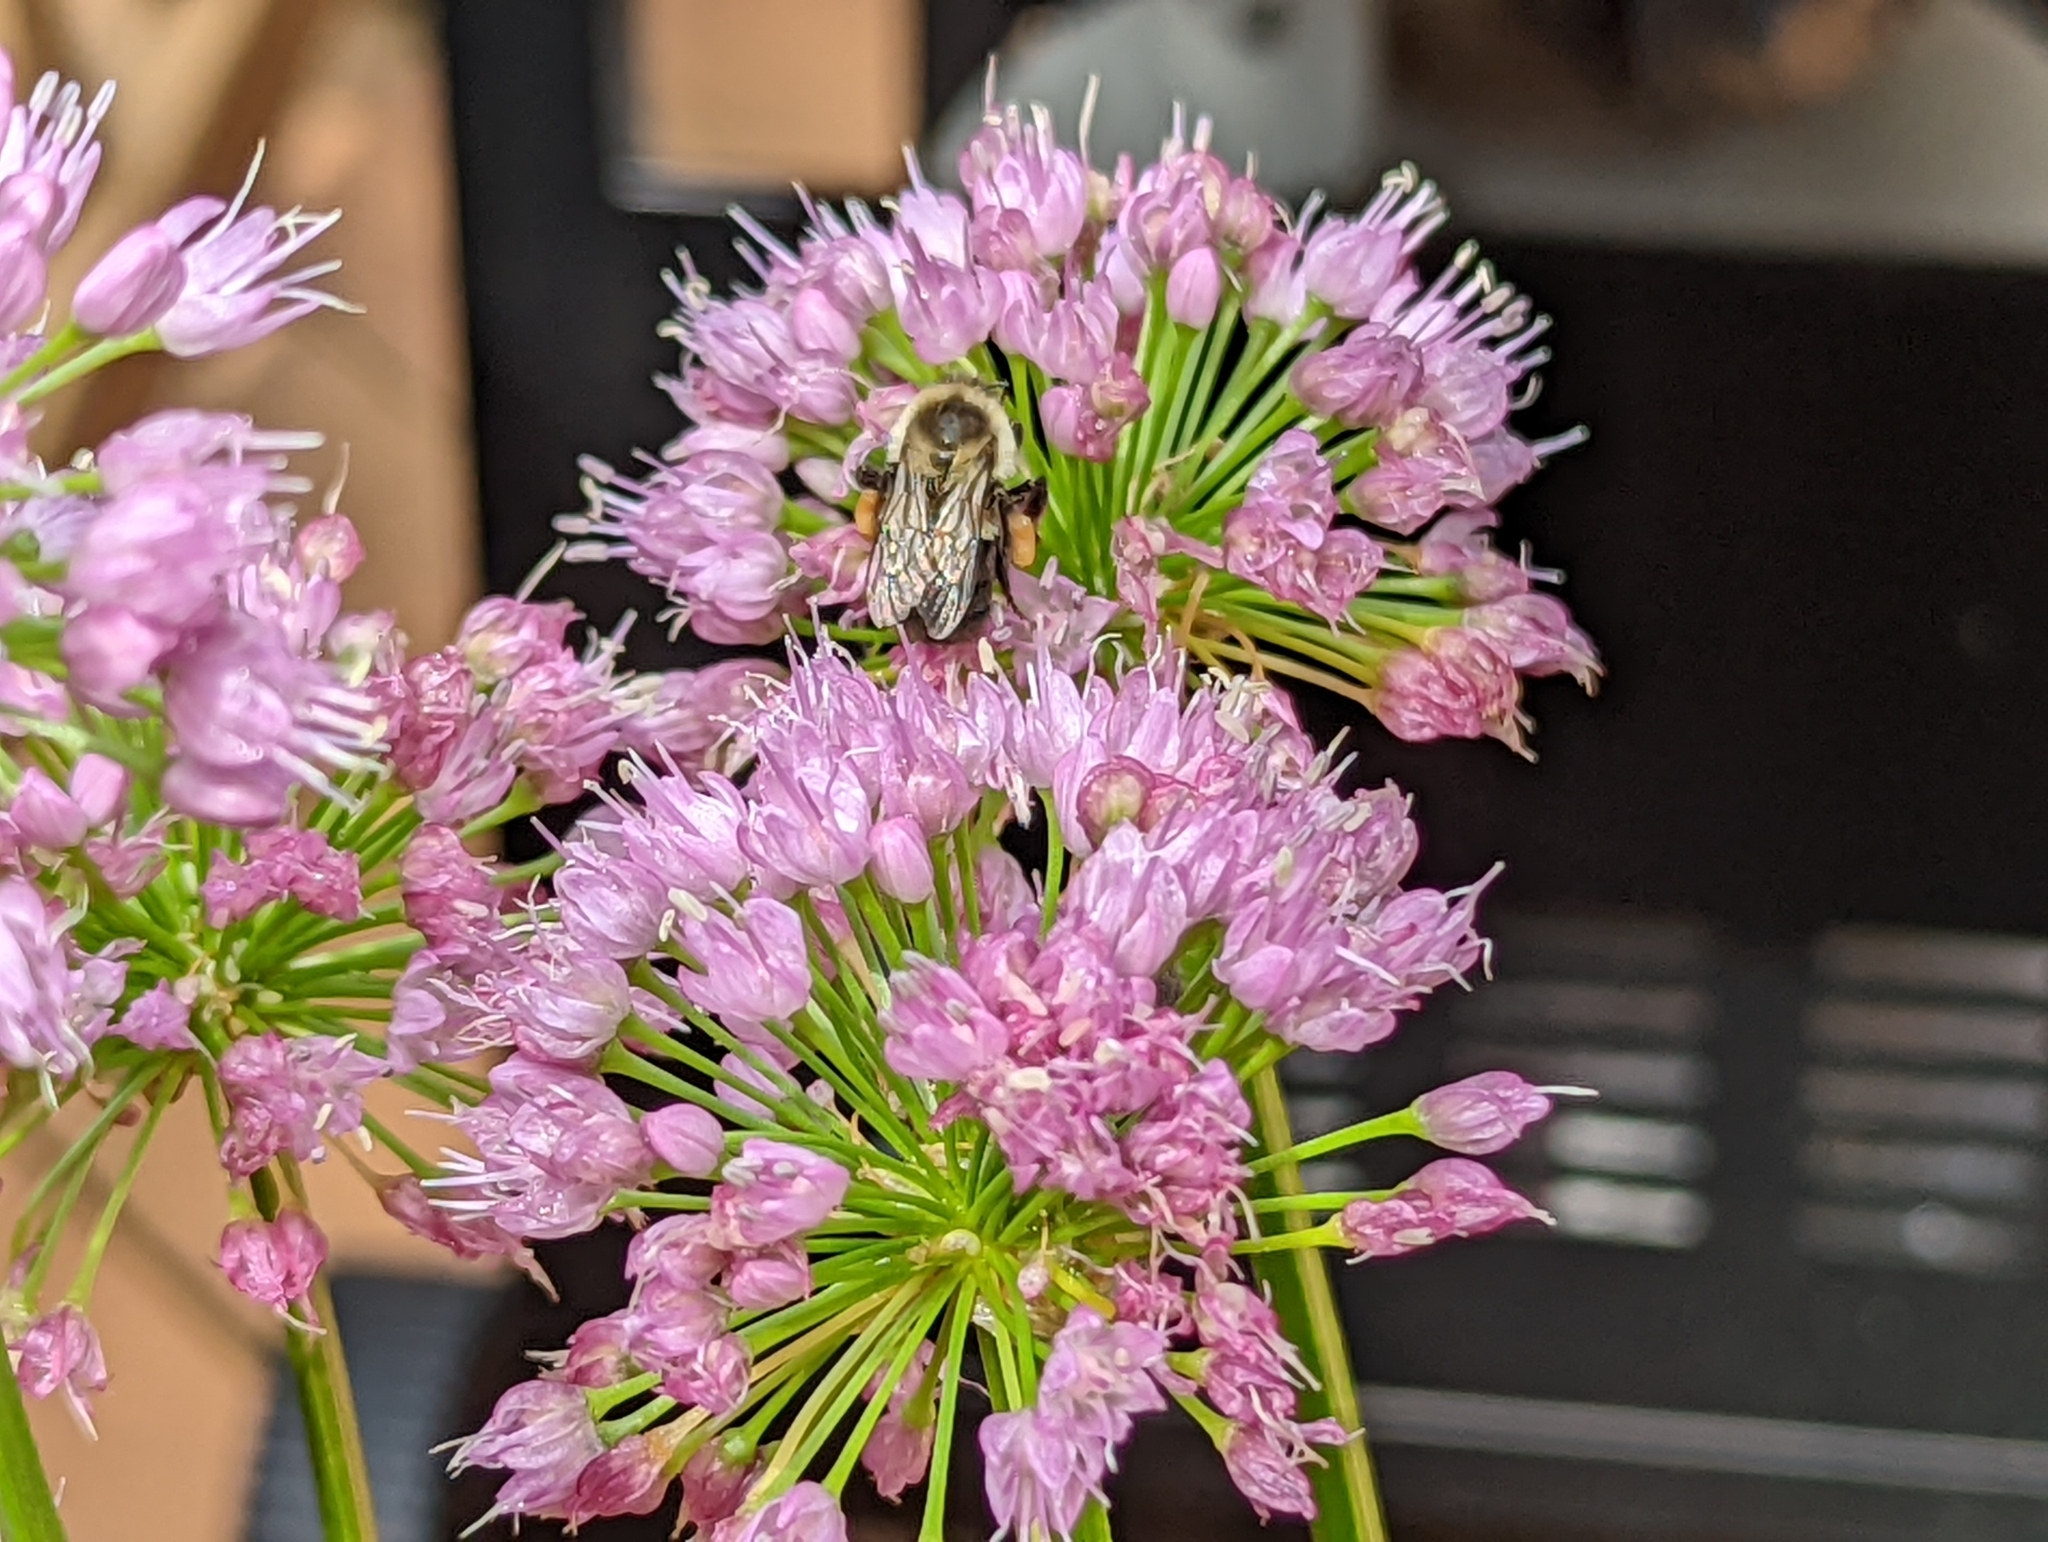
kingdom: Animalia
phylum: Arthropoda
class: Insecta
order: Hymenoptera
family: Apidae
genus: Bombus
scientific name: Bombus impatiens
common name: Common eastern bumble bee
